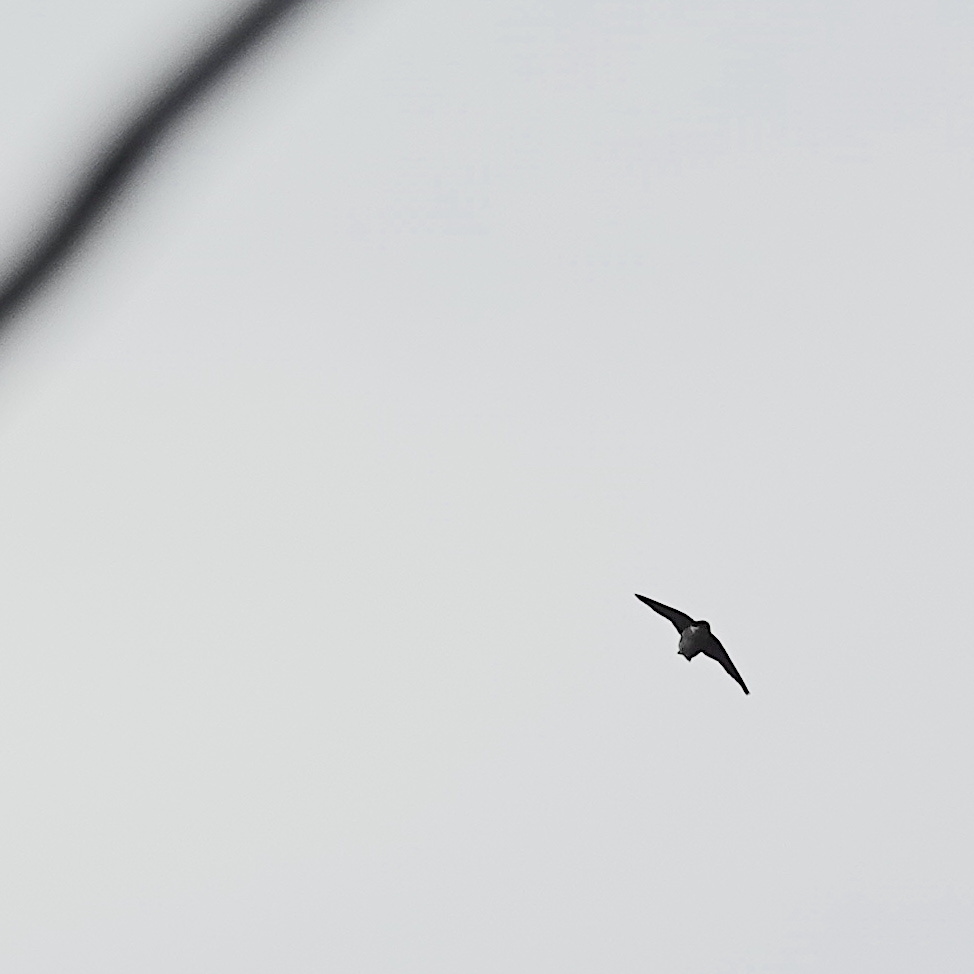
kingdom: Animalia
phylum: Chordata
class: Aves
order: Passeriformes
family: Hirundinidae
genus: Delichon
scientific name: Delichon dasypus
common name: Asian house martin
